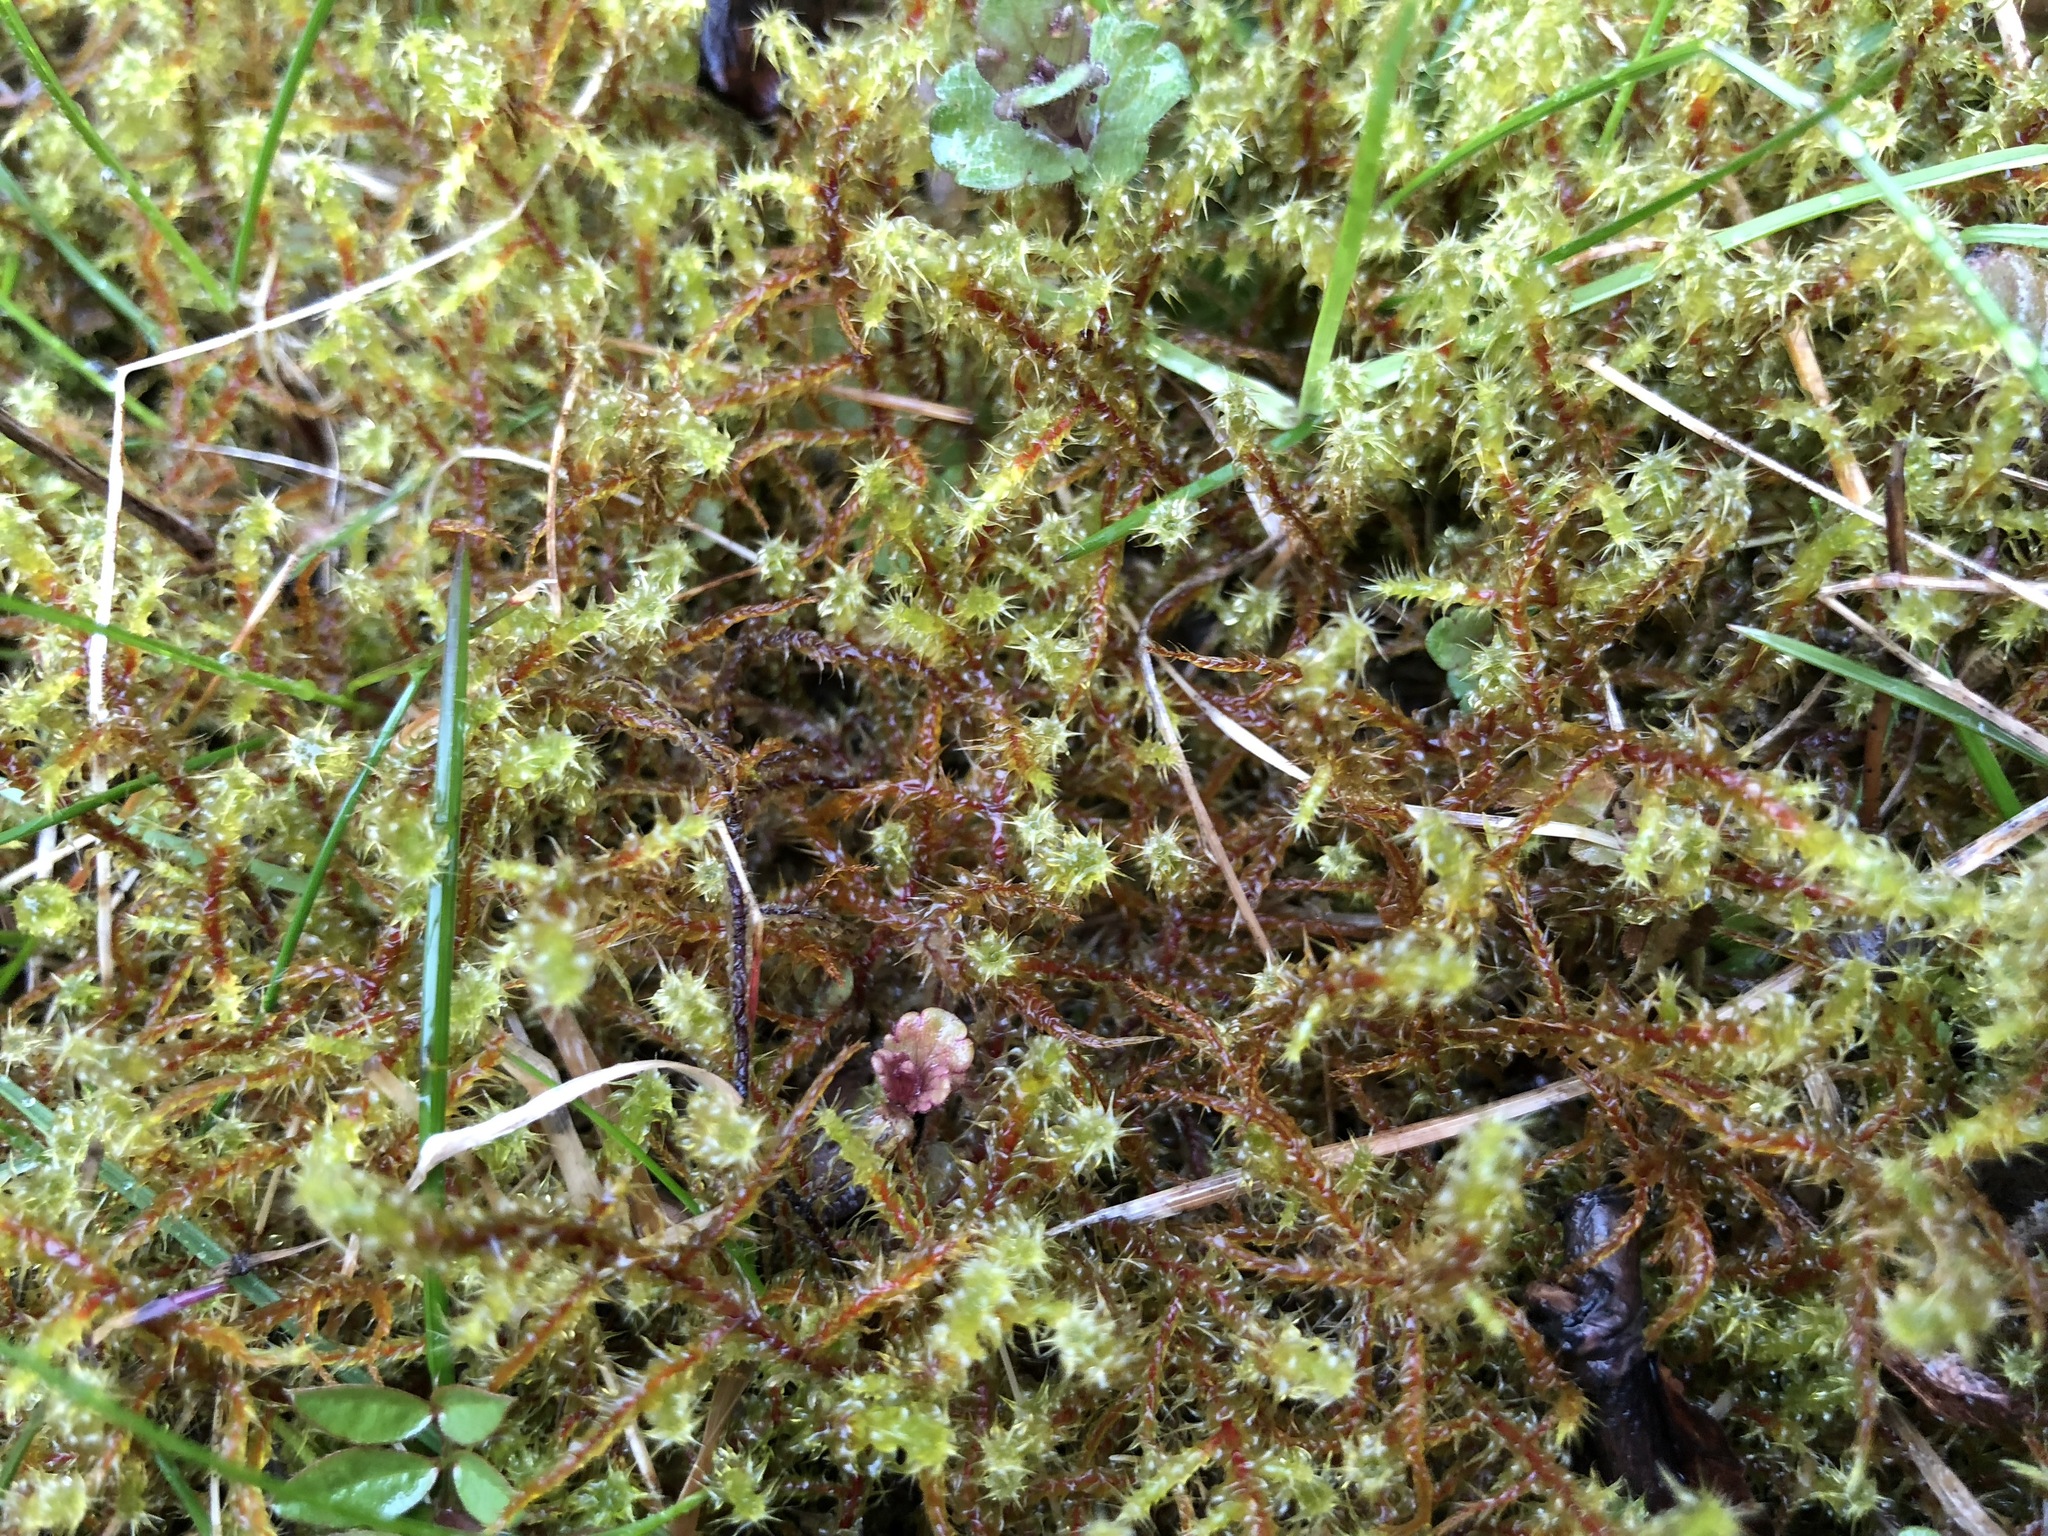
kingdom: Plantae
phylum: Bryophyta
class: Bryopsida
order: Hypnales
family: Hylocomiaceae
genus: Rhytidiadelphus
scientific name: Rhytidiadelphus squarrosus
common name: Springy turf-moss
